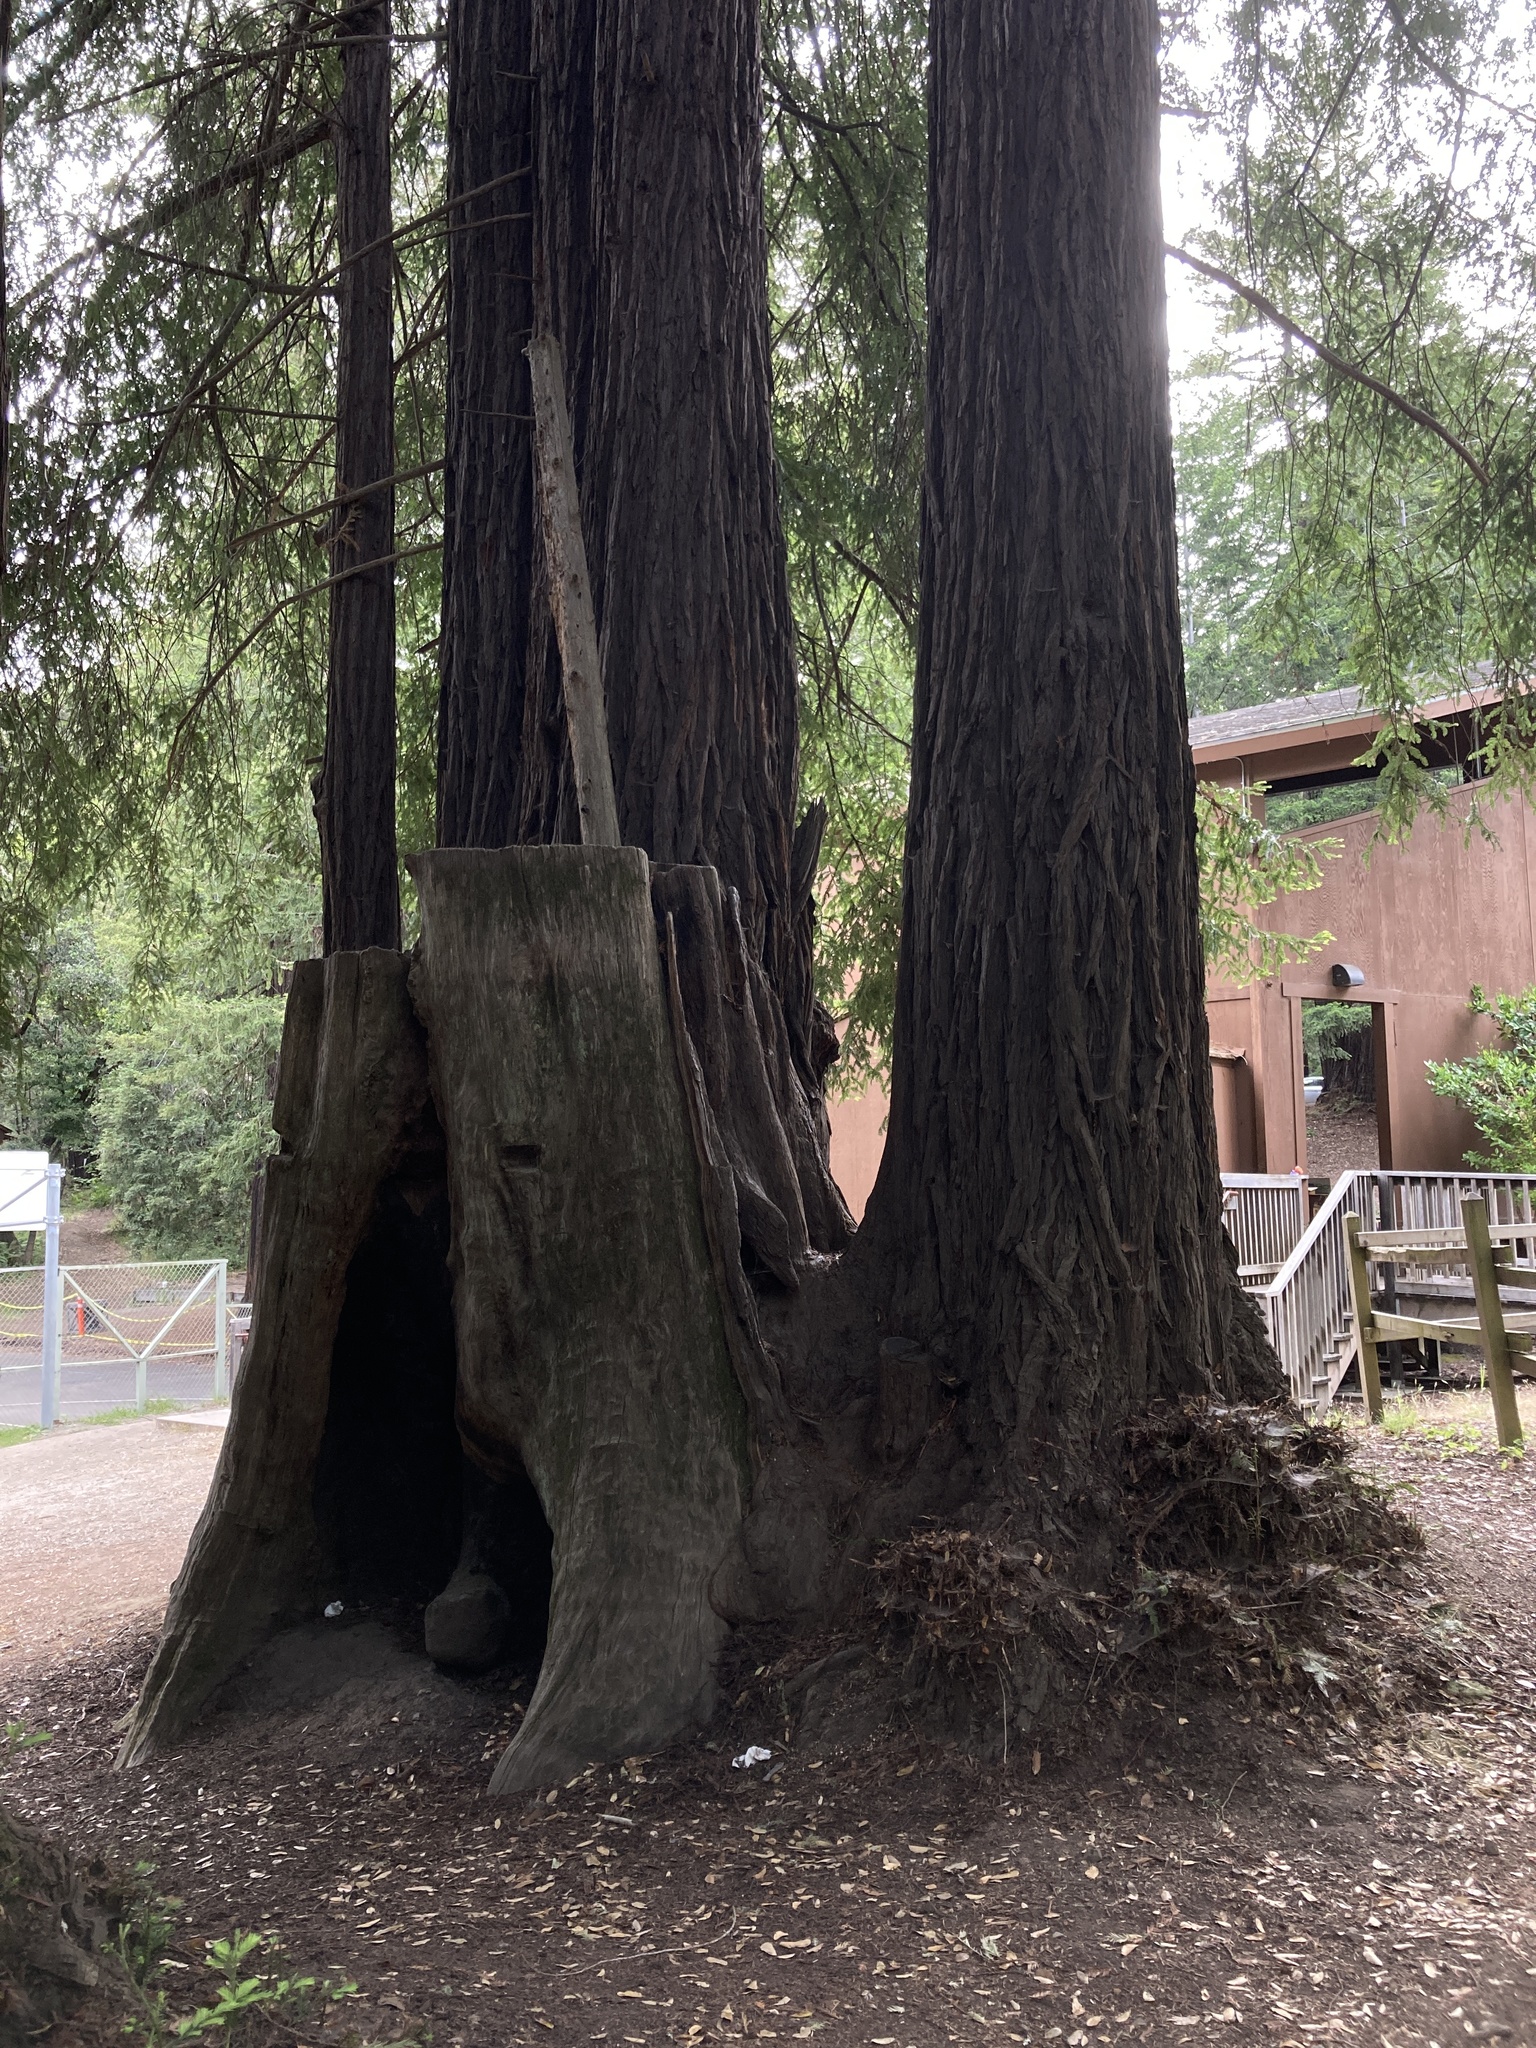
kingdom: Plantae
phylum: Tracheophyta
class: Pinopsida
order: Pinales
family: Cupressaceae
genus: Sequoia
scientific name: Sequoia sempervirens
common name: Coast redwood
